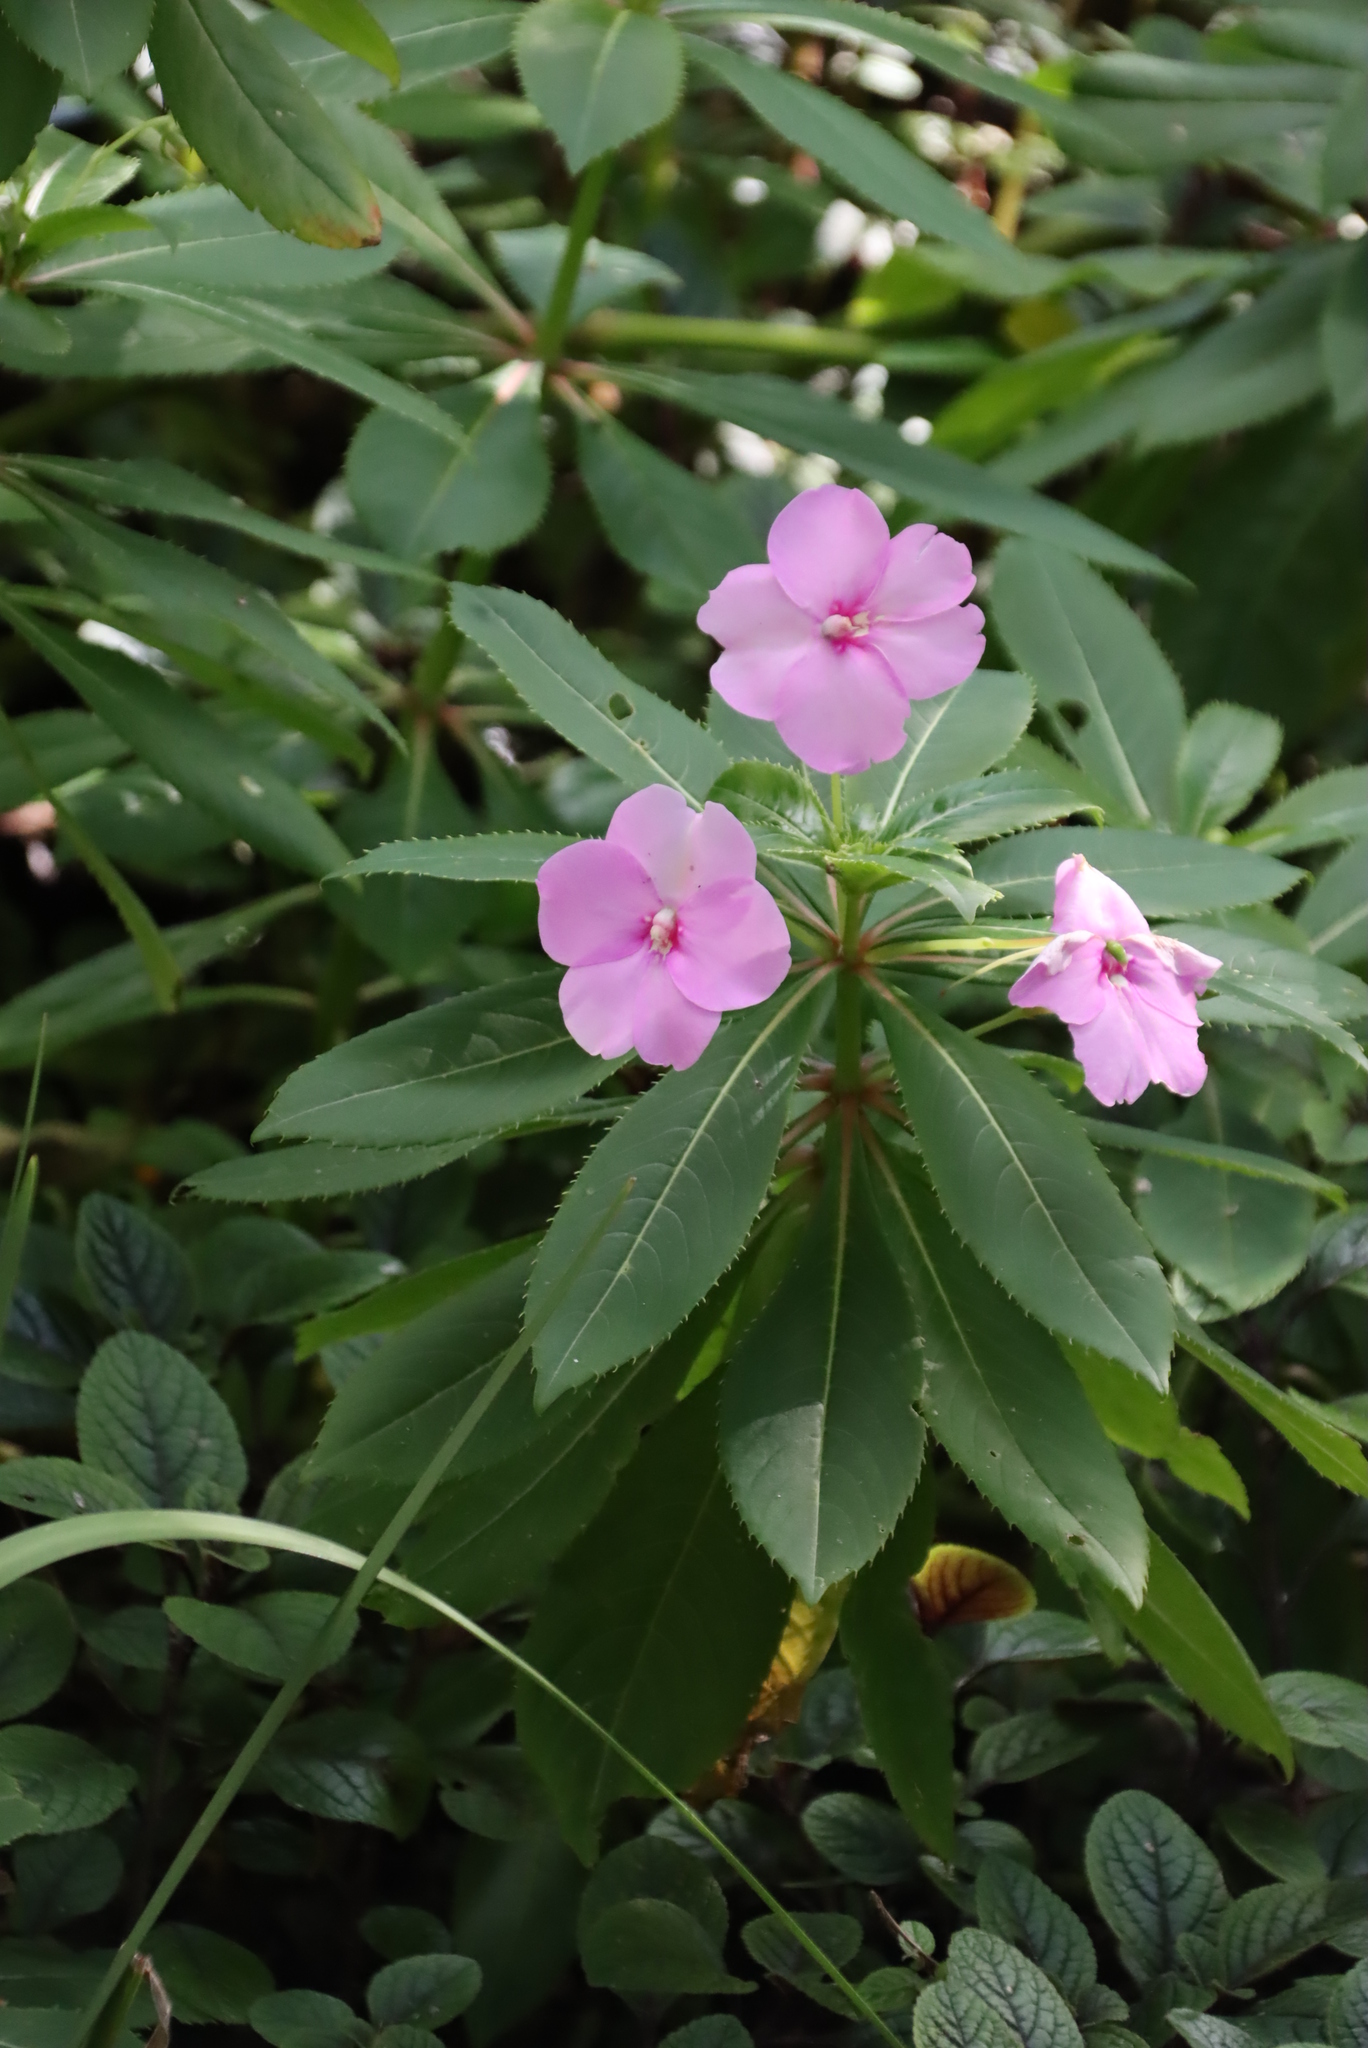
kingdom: Plantae
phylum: Tracheophyta
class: Magnoliopsida
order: Ericales
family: Balsaminaceae
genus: Impatiens
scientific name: Impatiens sodenii
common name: Oliver's touch-me-not
